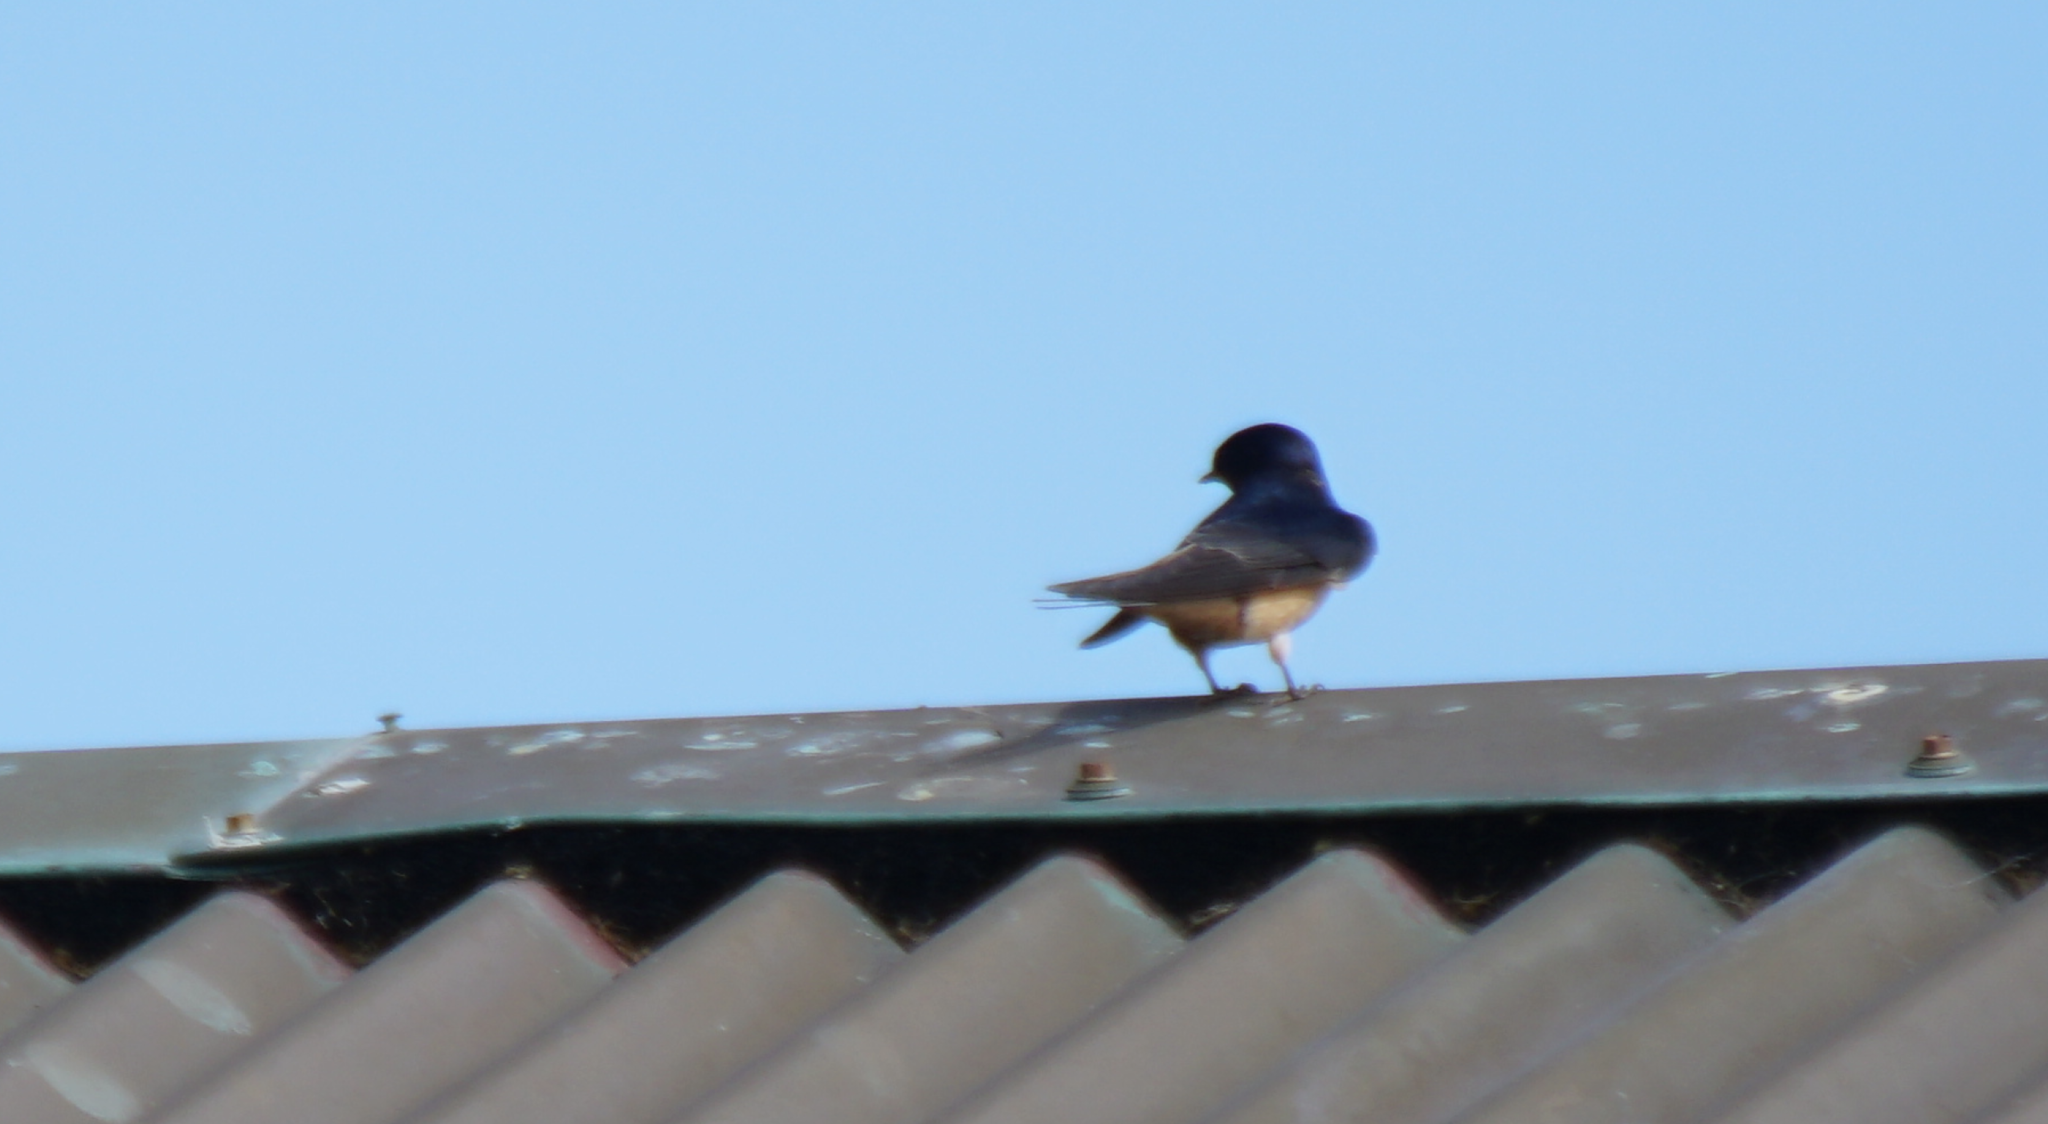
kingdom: Animalia
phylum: Chordata
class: Aves
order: Passeriformes
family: Hirundinidae
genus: Hirundo
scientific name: Hirundo rustica
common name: Barn swallow
